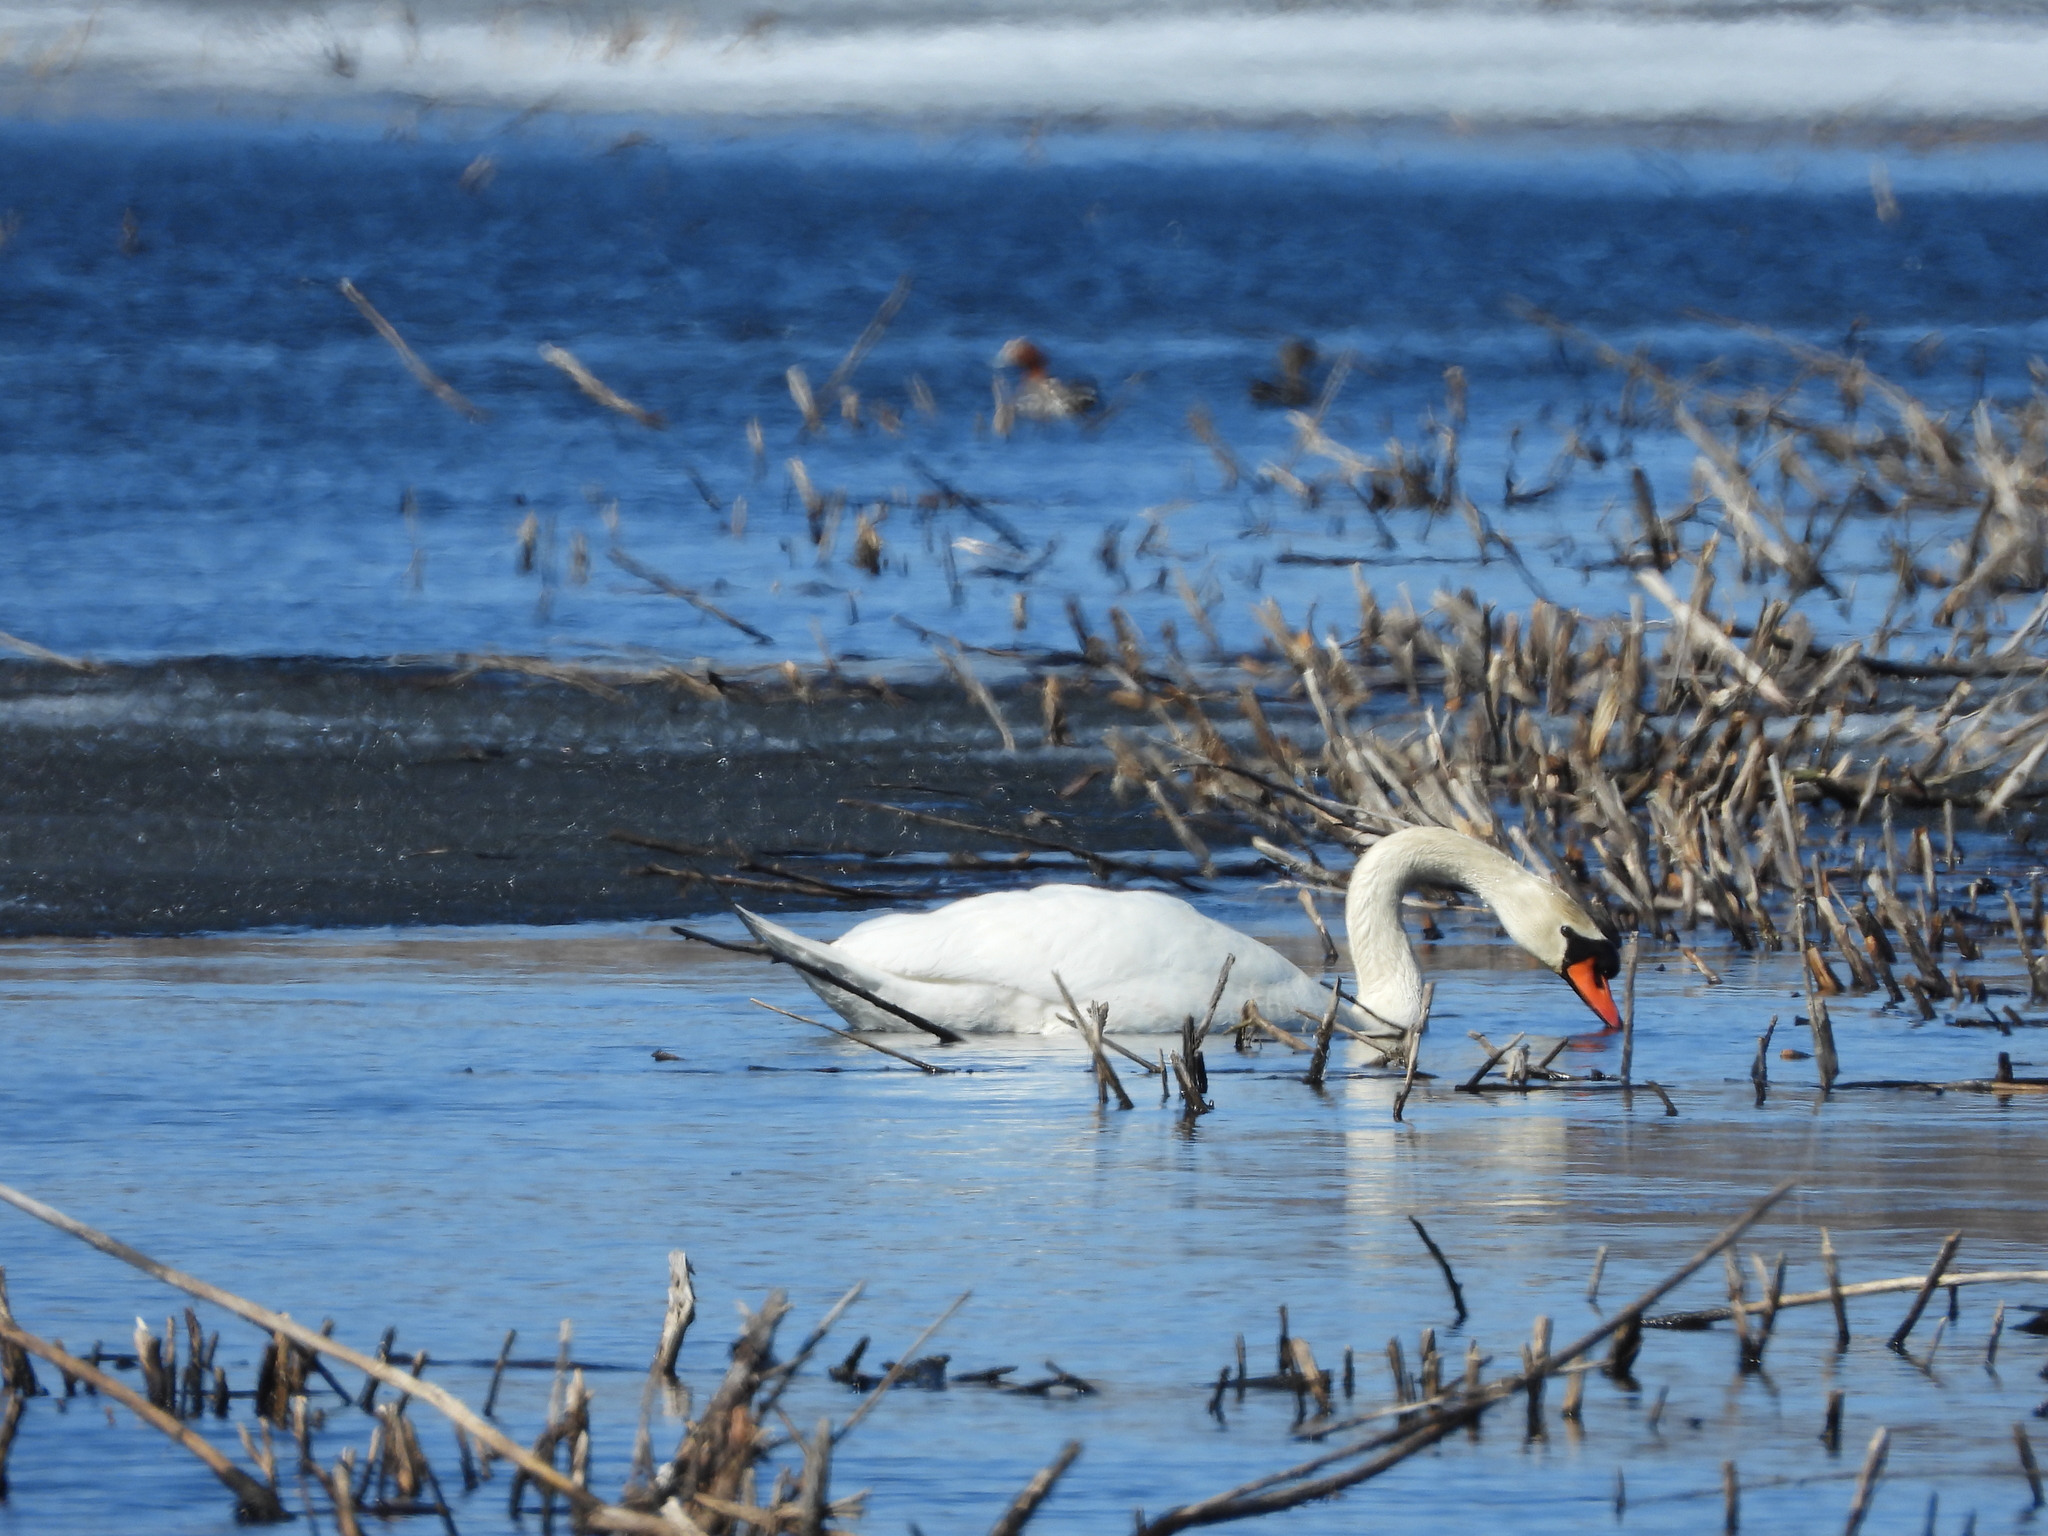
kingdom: Animalia
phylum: Chordata
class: Aves
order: Anseriformes
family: Anatidae
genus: Cygnus
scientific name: Cygnus olor
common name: Mute swan
